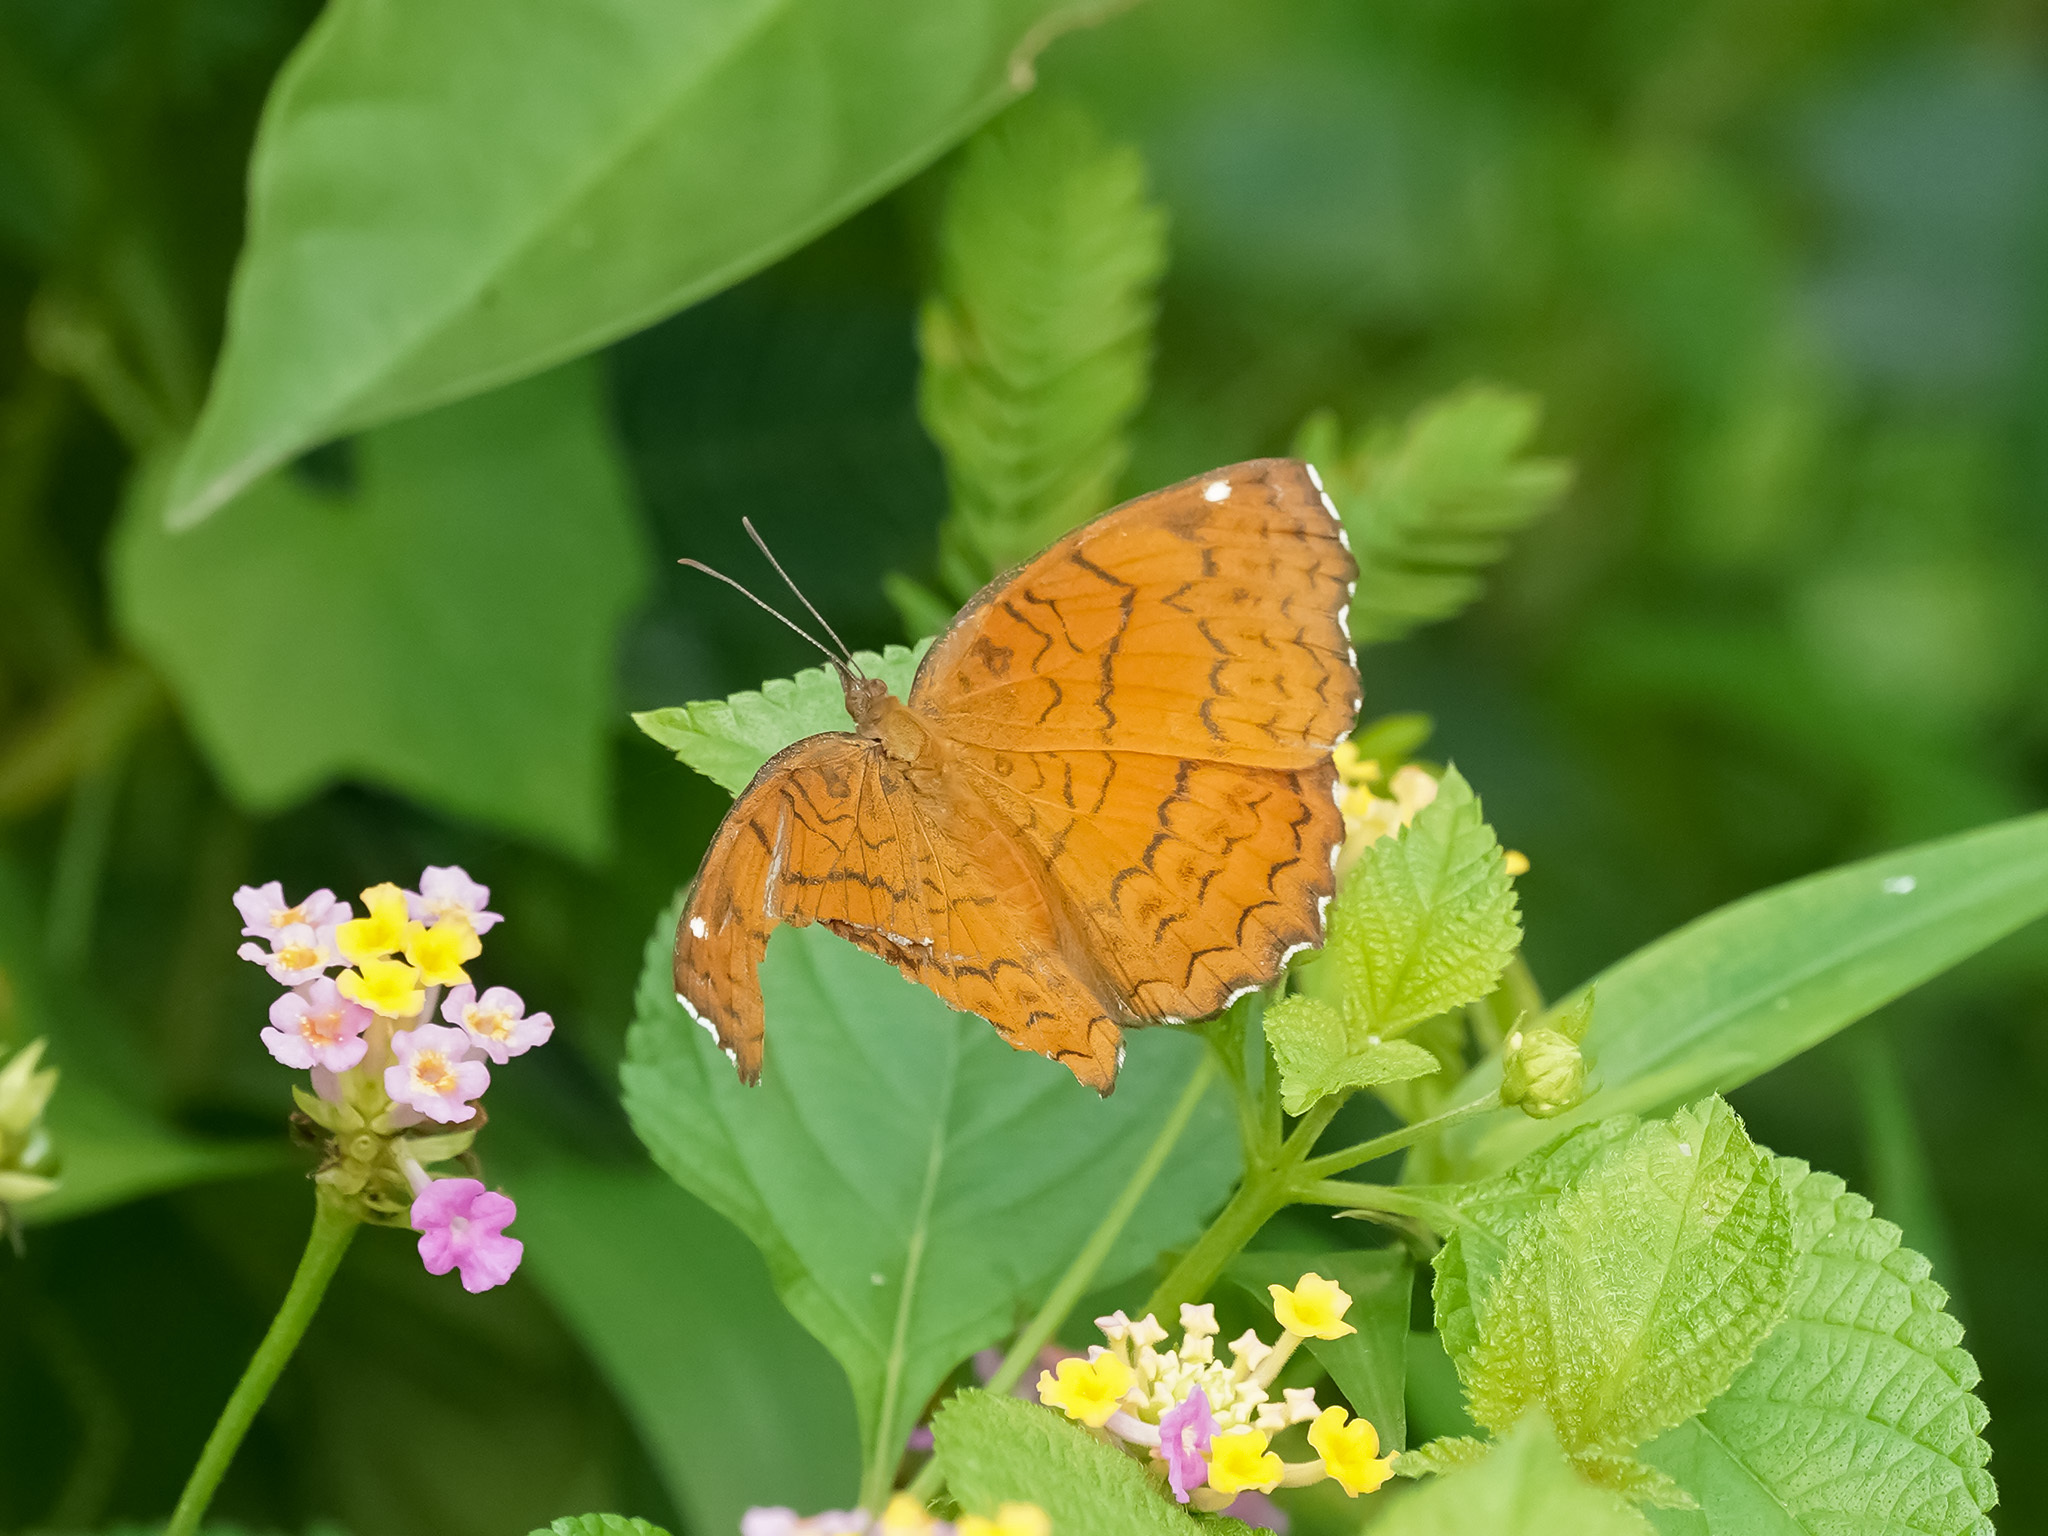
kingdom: Animalia
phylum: Arthropoda
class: Insecta
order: Lepidoptera
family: Nymphalidae
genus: Ariadne
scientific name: Ariadne ariadne
